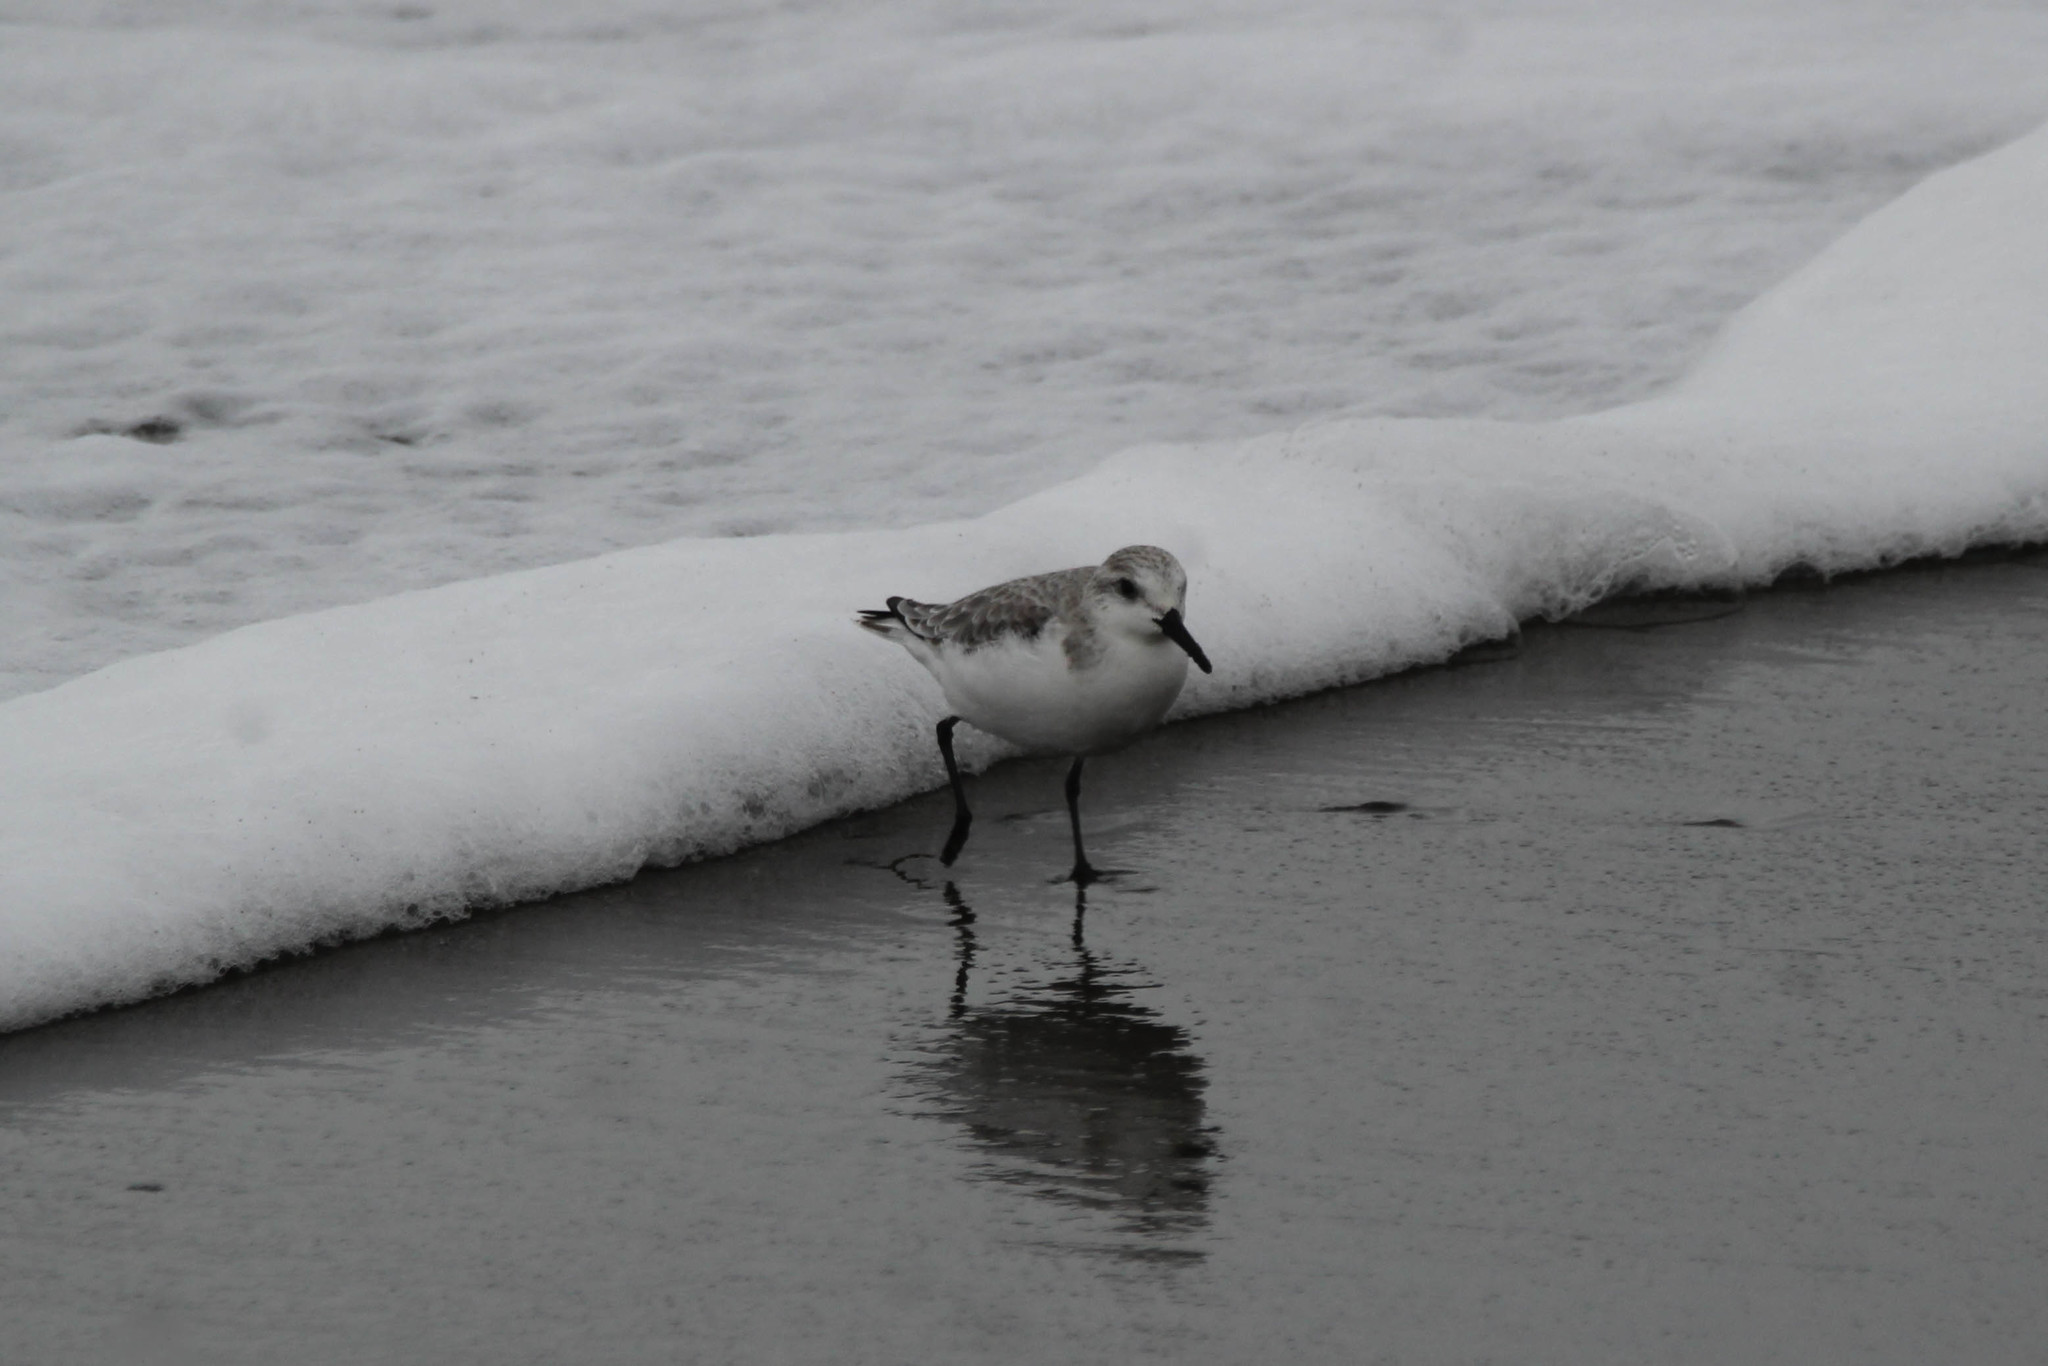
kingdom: Animalia
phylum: Chordata
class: Aves
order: Charadriiformes
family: Scolopacidae
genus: Calidris
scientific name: Calidris alba
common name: Sanderling
